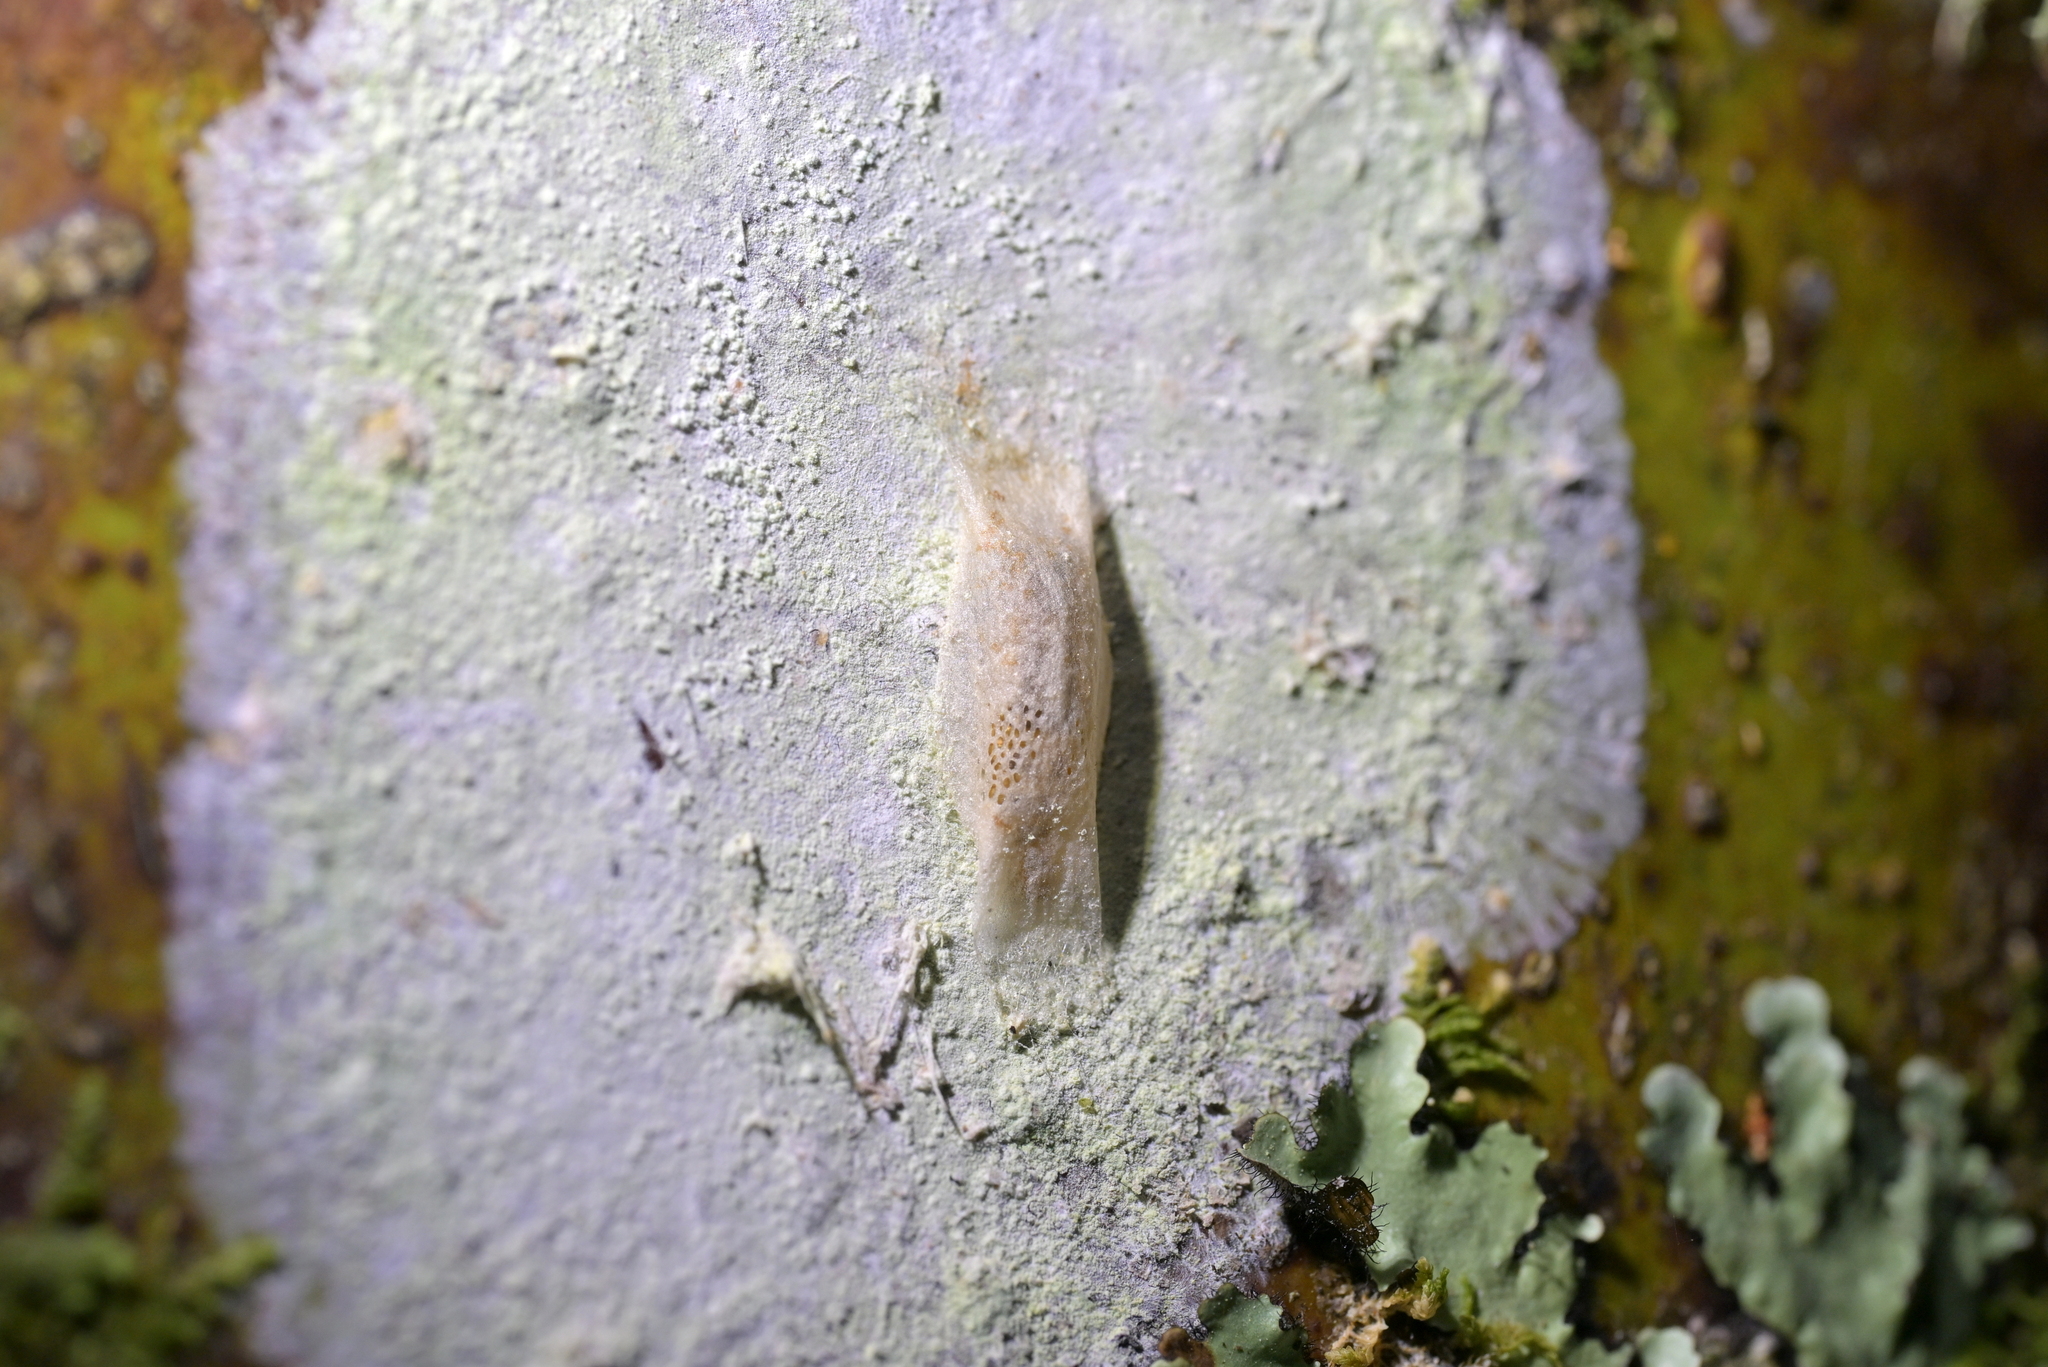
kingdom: Animalia
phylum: Arthropoda
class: Insecta
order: Lepidoptera
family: Plutellidae
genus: Doxophyrtis
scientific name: Doxophyrtis hydrocosma
